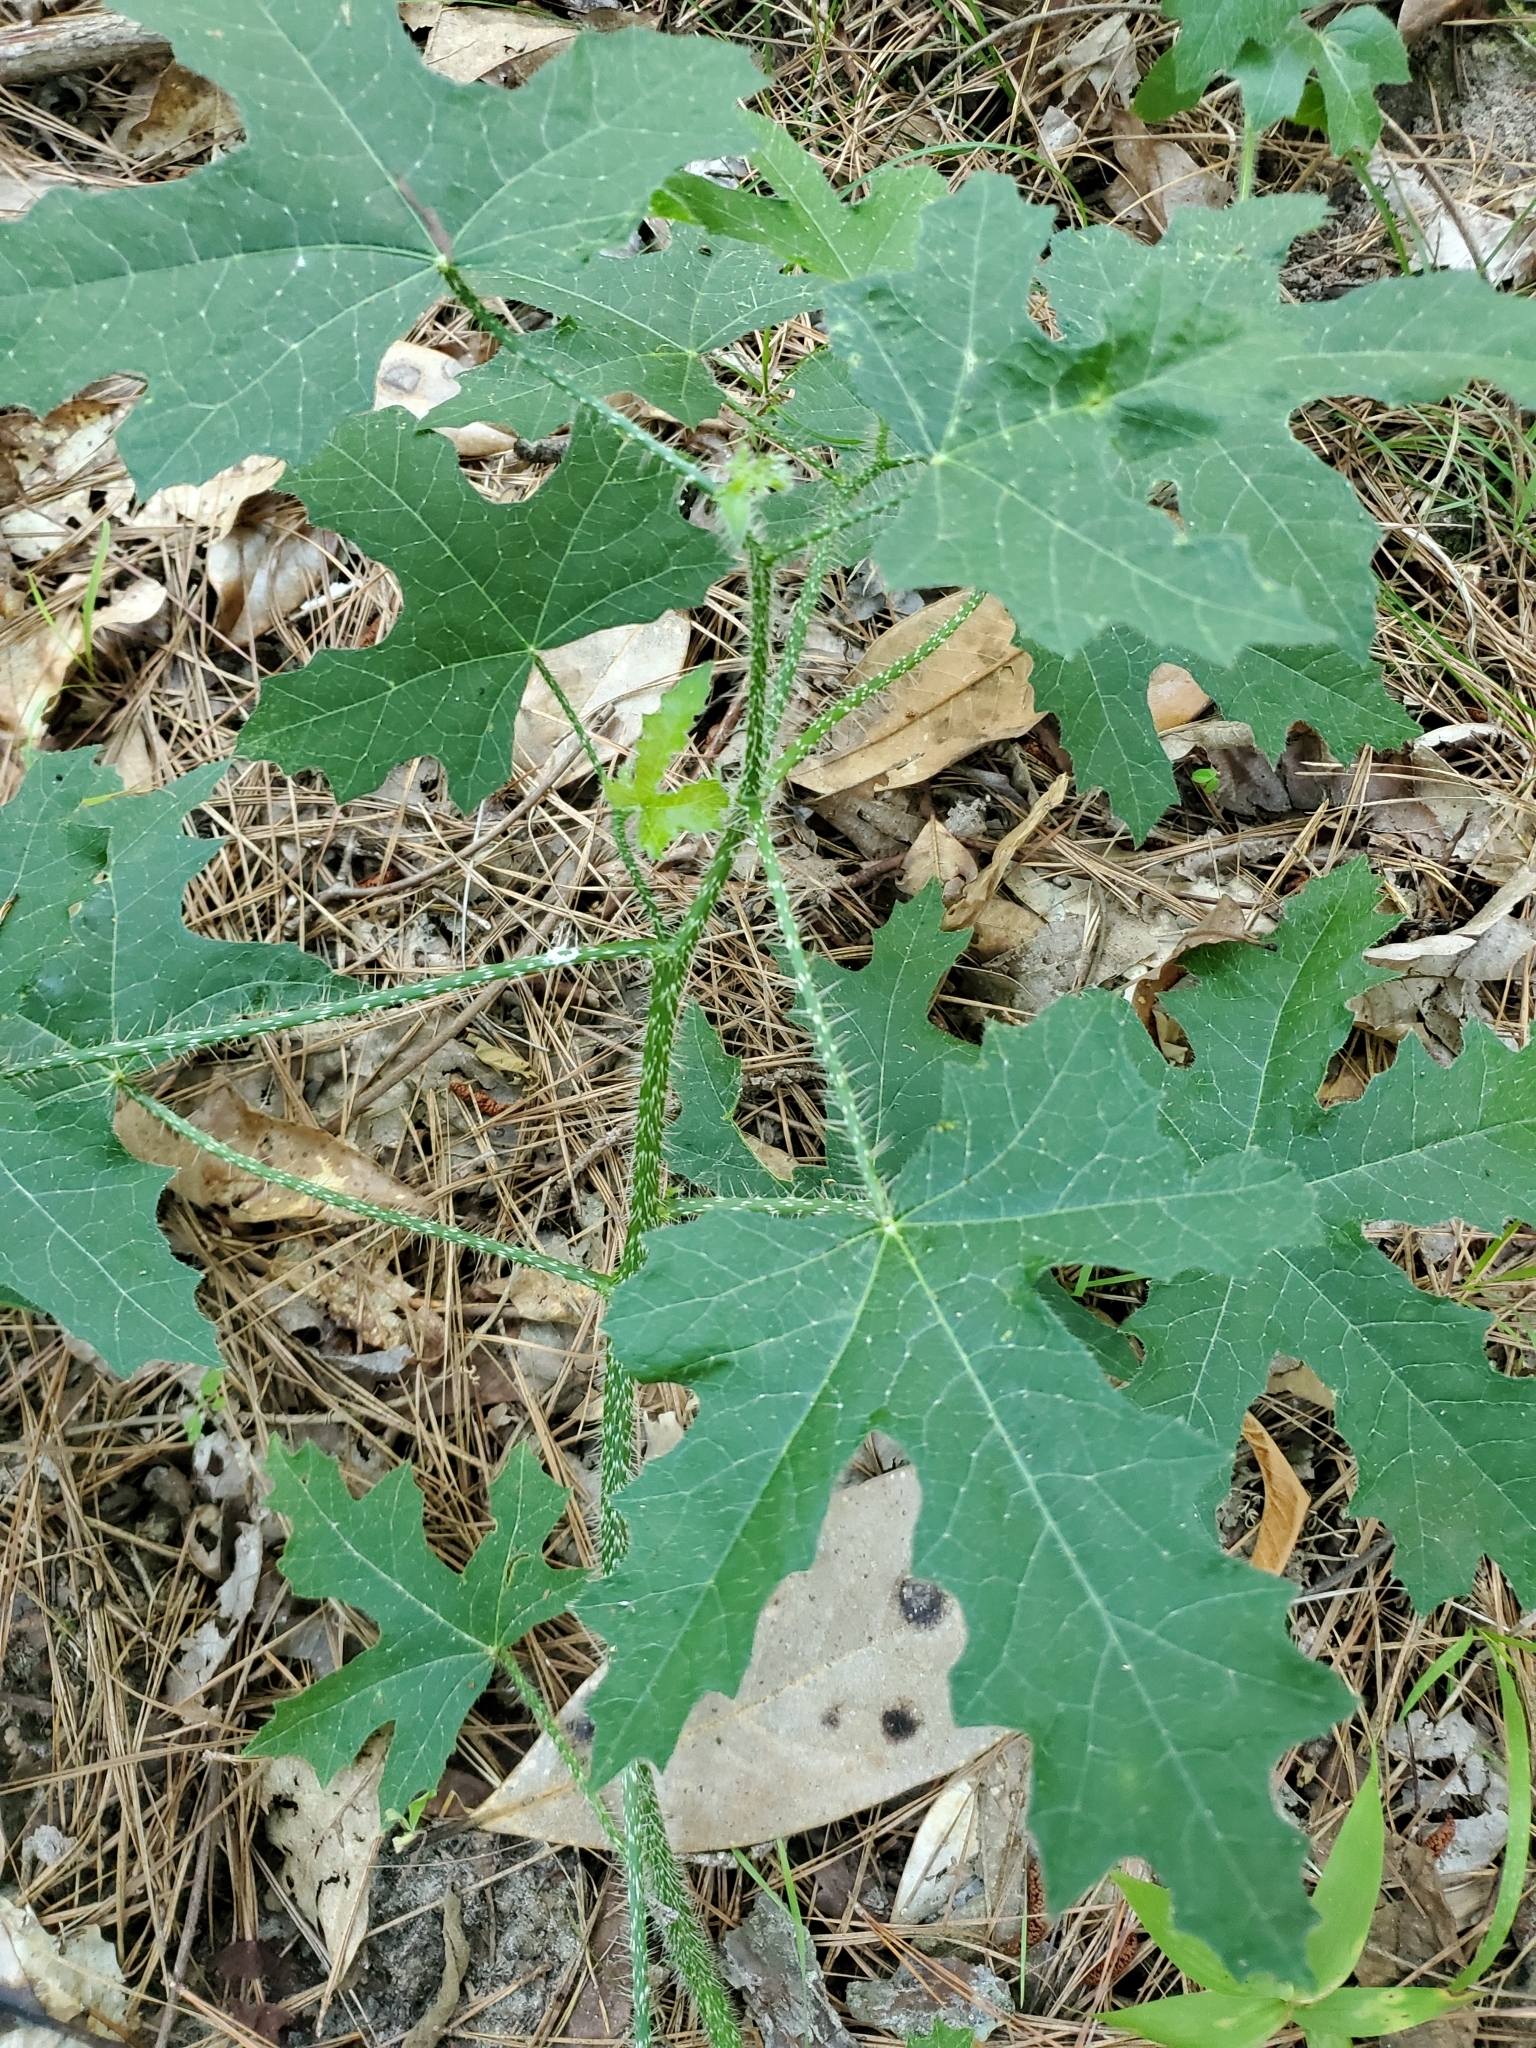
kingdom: Plantae
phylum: Tracheophyta
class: Magnoliopsida
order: Malpighiales
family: Euphorbiaceae
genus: Cnidoscolus
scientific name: Cnidoscolus texanus
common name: Texas bull-nettle
